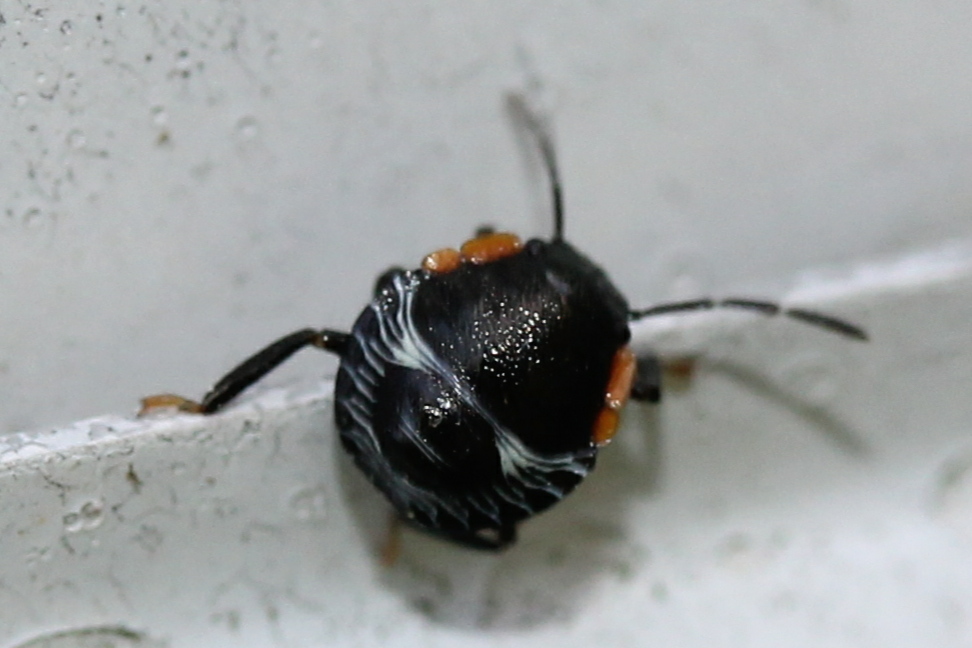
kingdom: Animalia
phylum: Arthropoda
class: Insecta
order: Hemiptera
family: Pentatomidae
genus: Chinavia
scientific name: Chinavia hilaris
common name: Green stink bug
